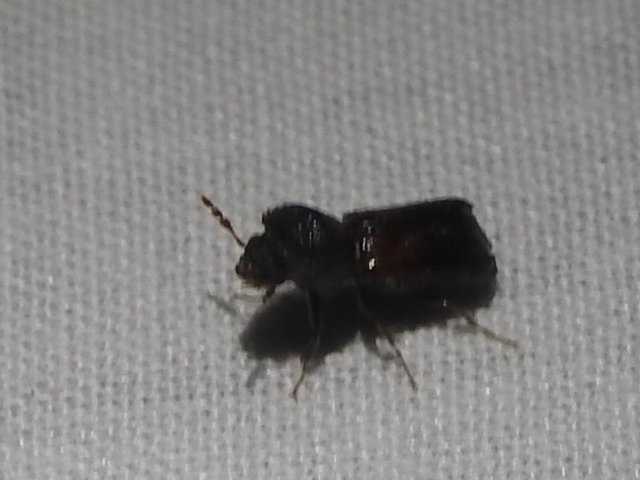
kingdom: Animalia
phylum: Arthropoda
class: Insecta
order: Coleoptera
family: Bostrichidae
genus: Xylobiops
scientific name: Xylobiops basilaris
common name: Red-shouldered bostrichid
